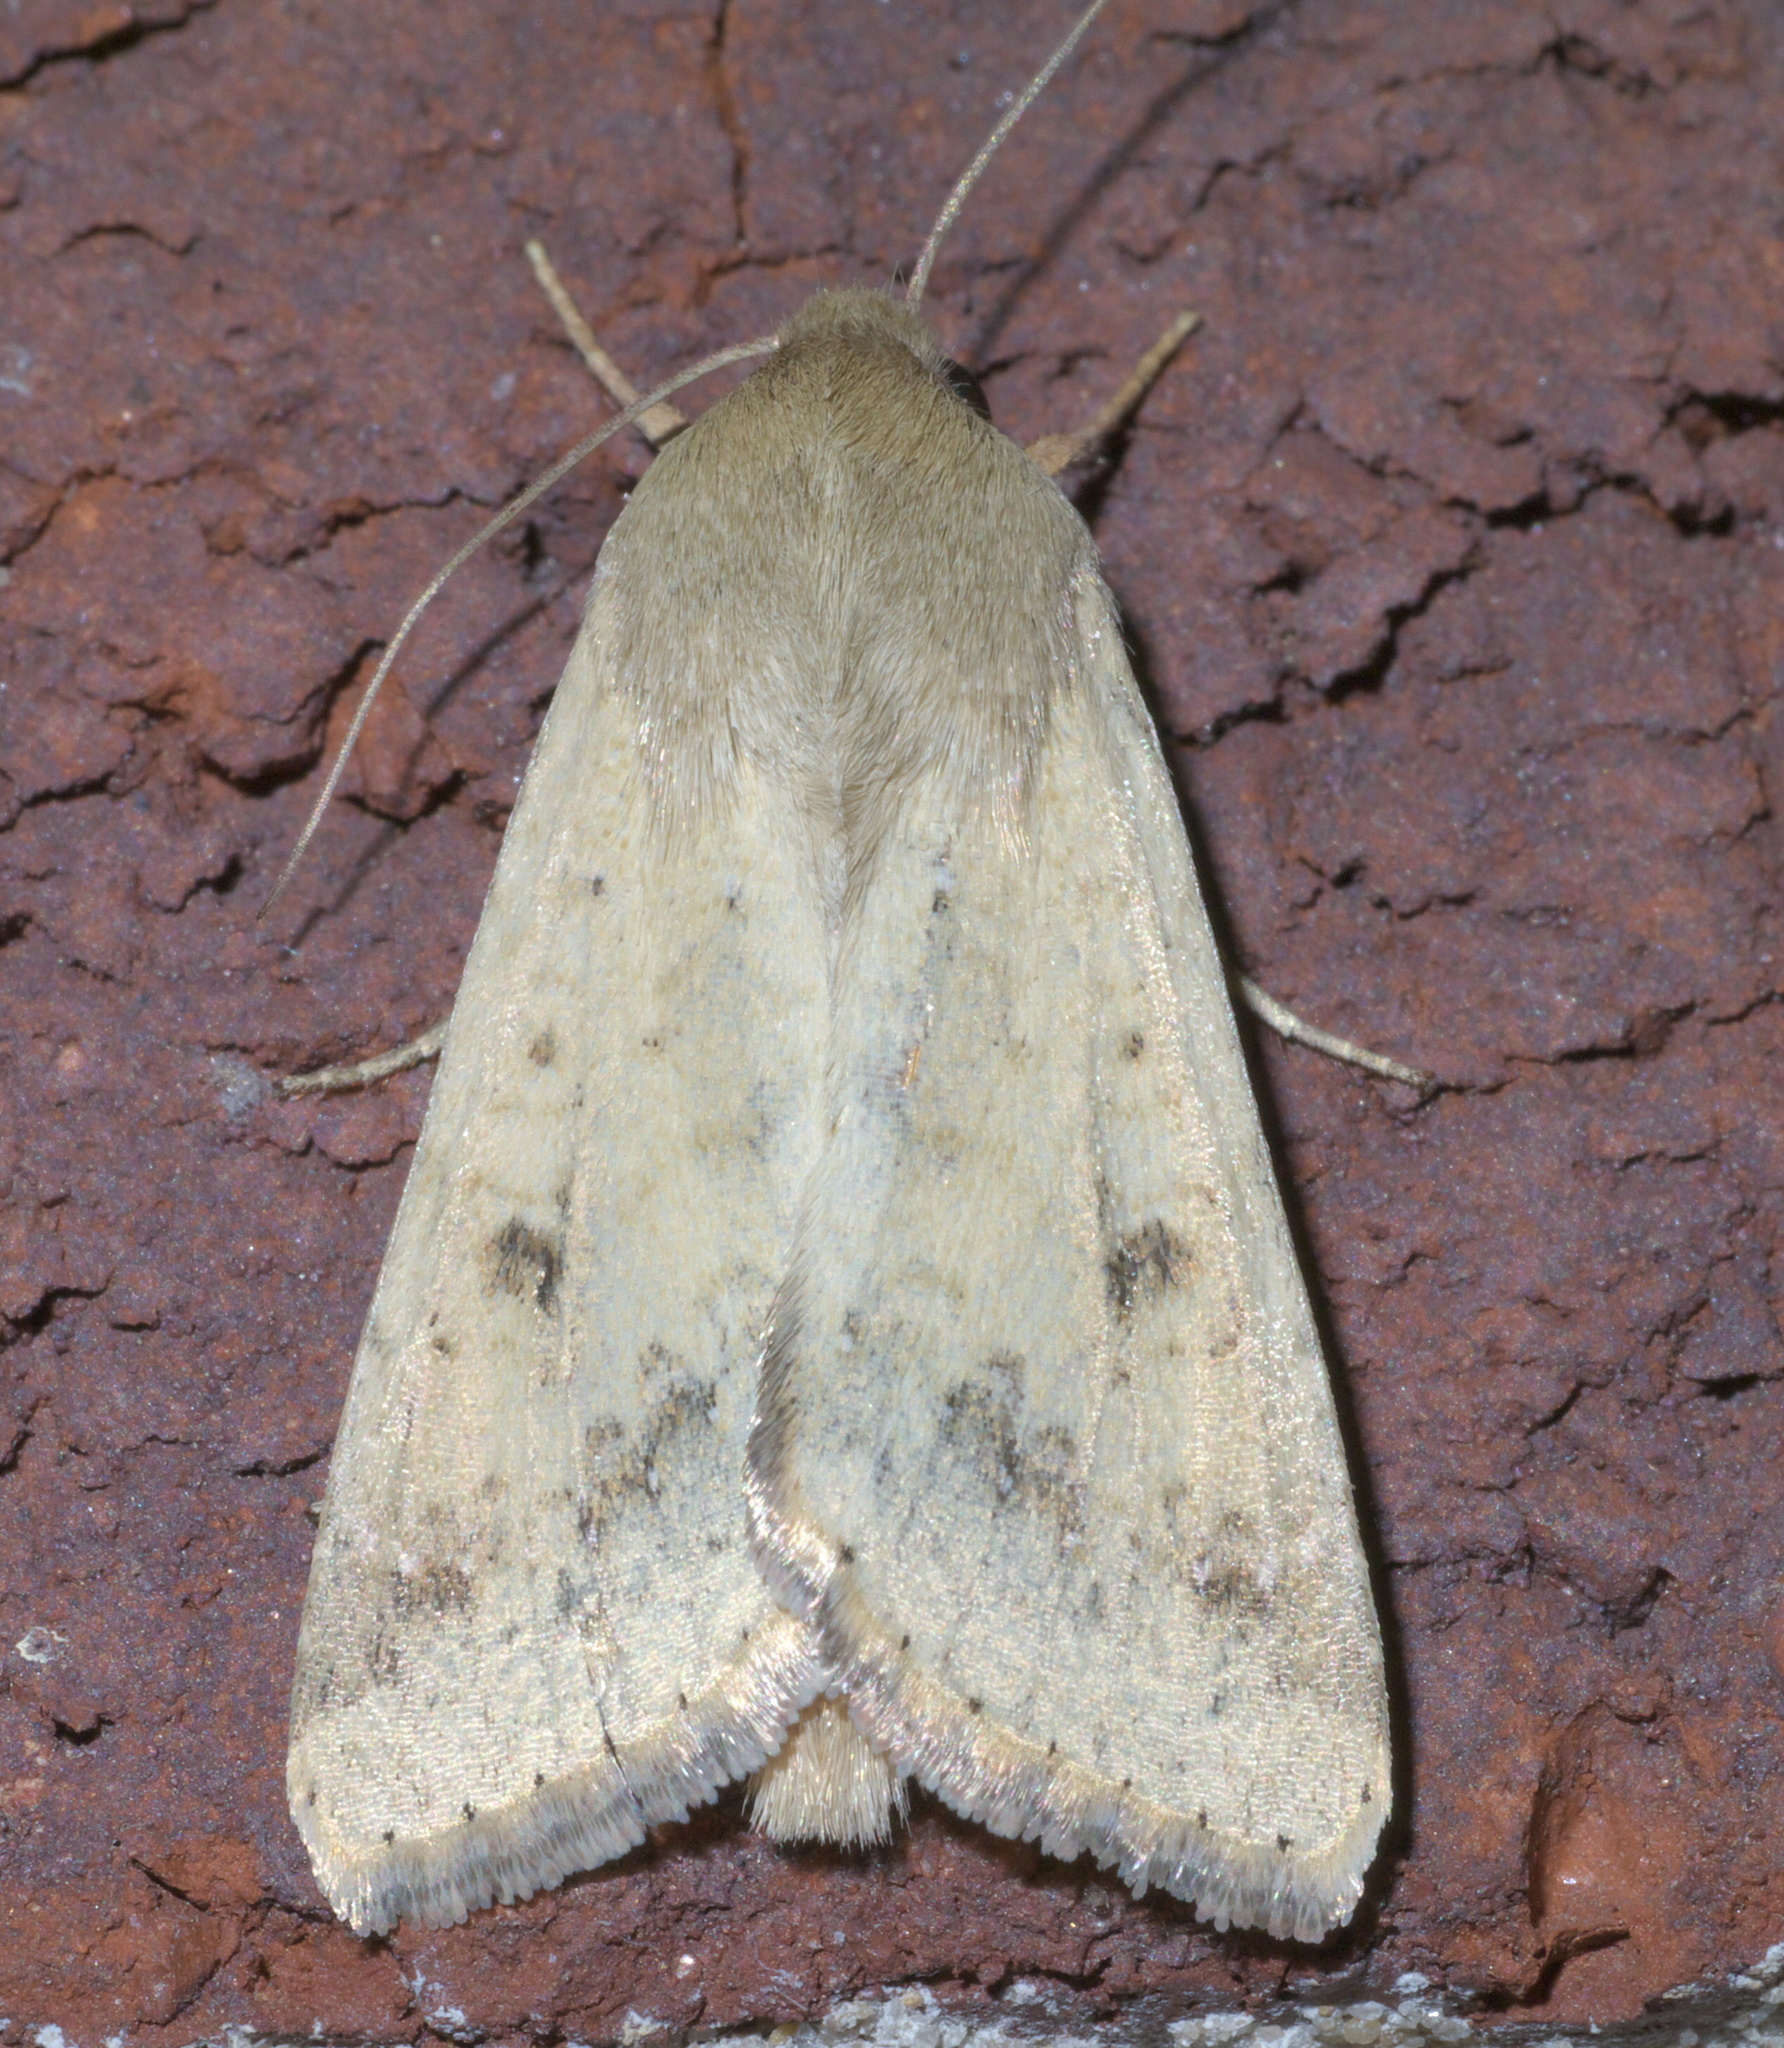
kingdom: Animalia
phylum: Arthropoda
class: Insecta
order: Lepidoptera
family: Noctuidae
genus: Helicoverpa
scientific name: Helicoverpa zea
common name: Bollworm
